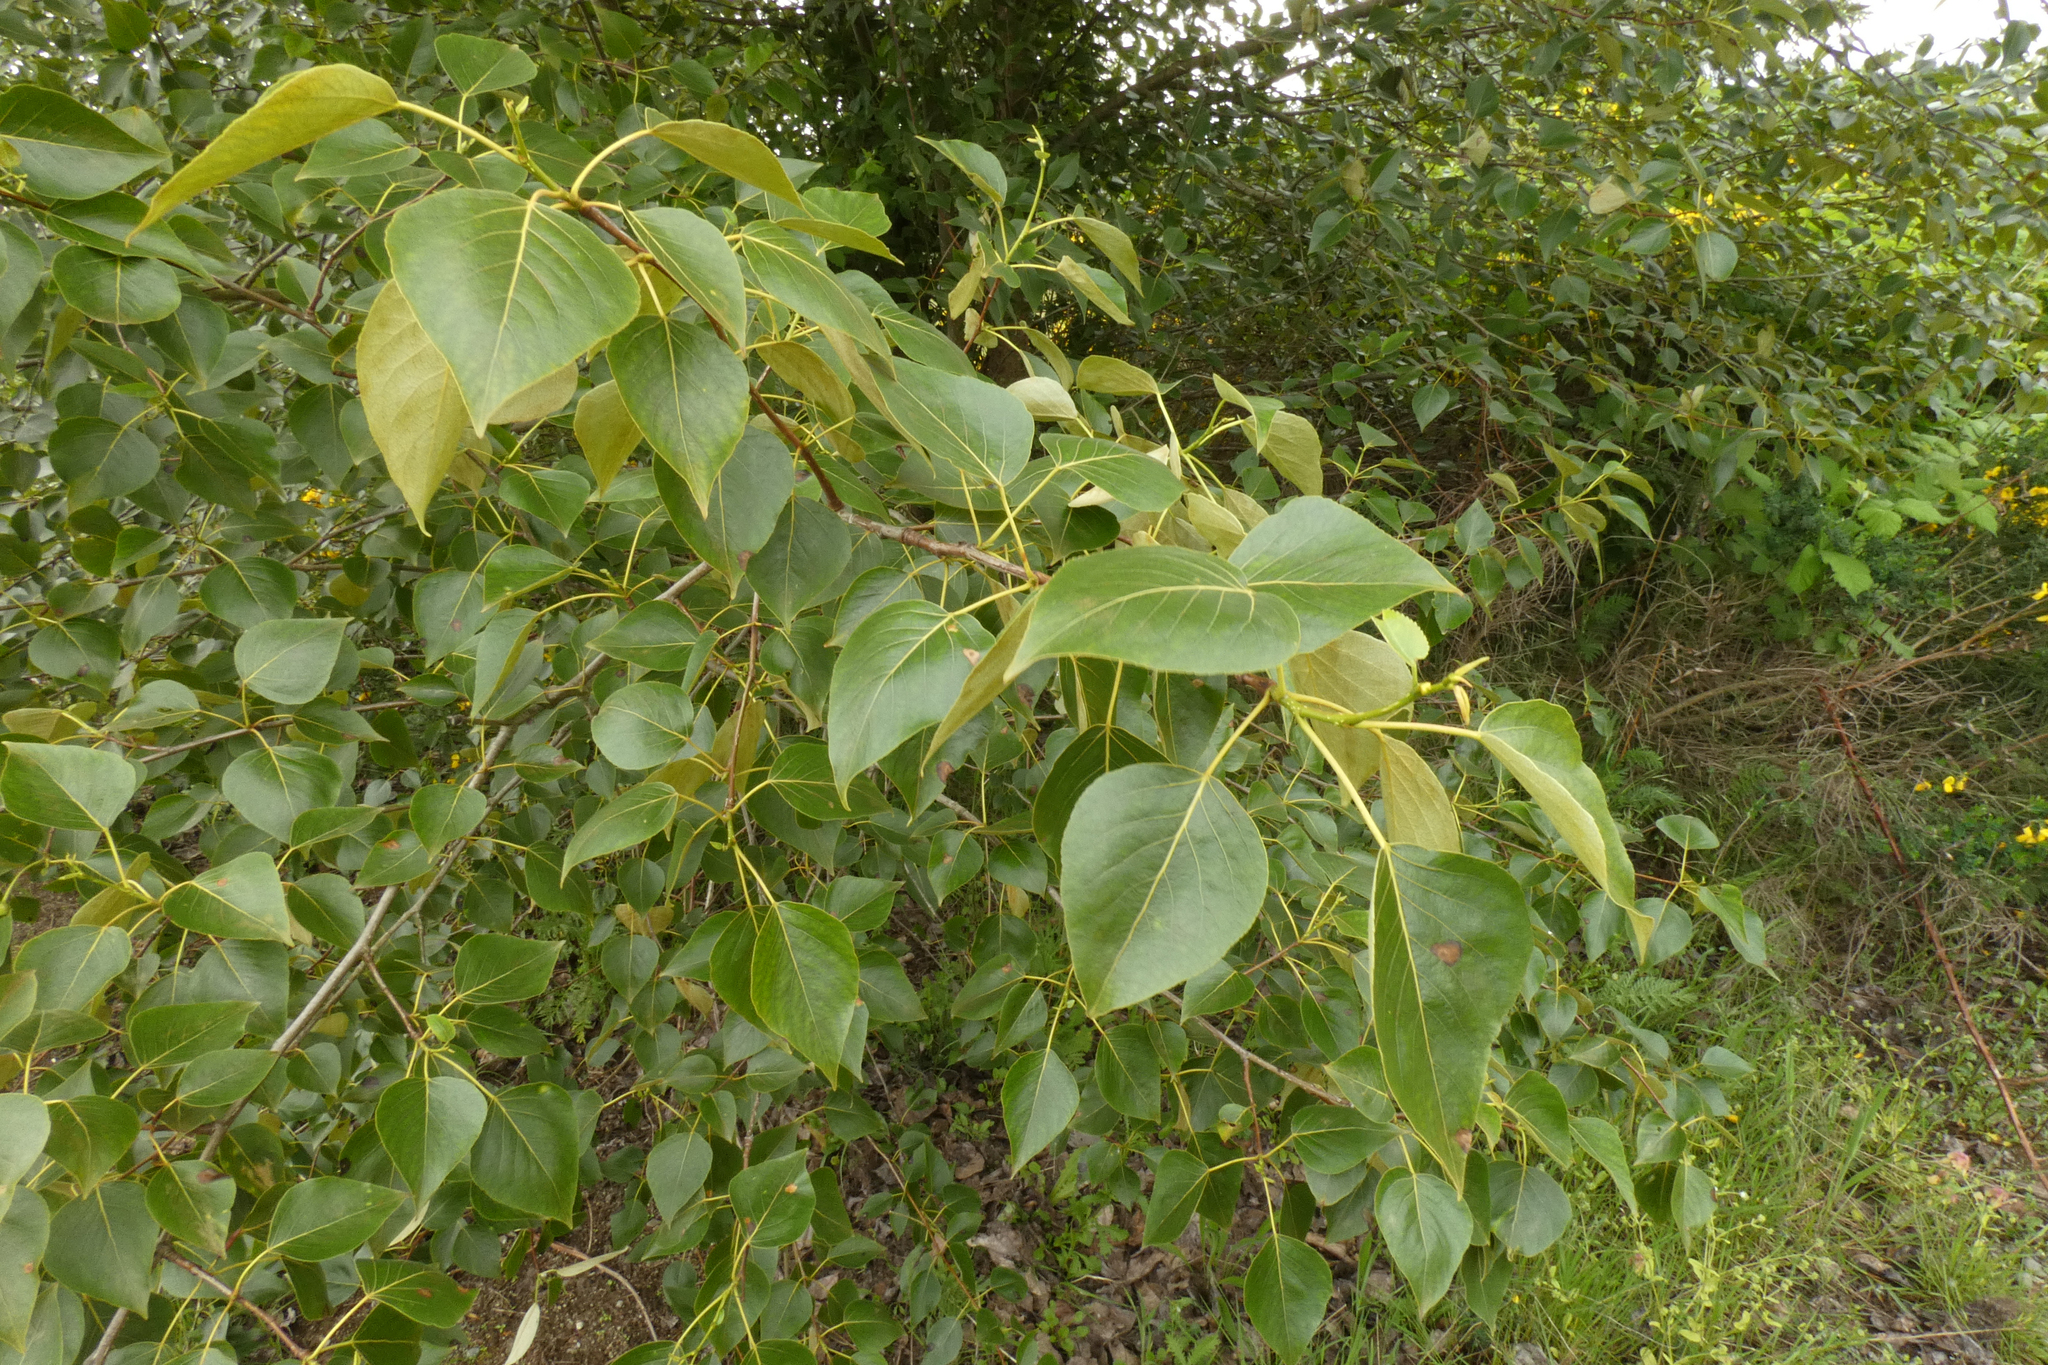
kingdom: Plantae
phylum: Tracheophyta
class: Magnoliopsida
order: Malpighiales
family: Salicaceae
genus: Populus
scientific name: Populus trichocarpa
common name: Black cottonwood
